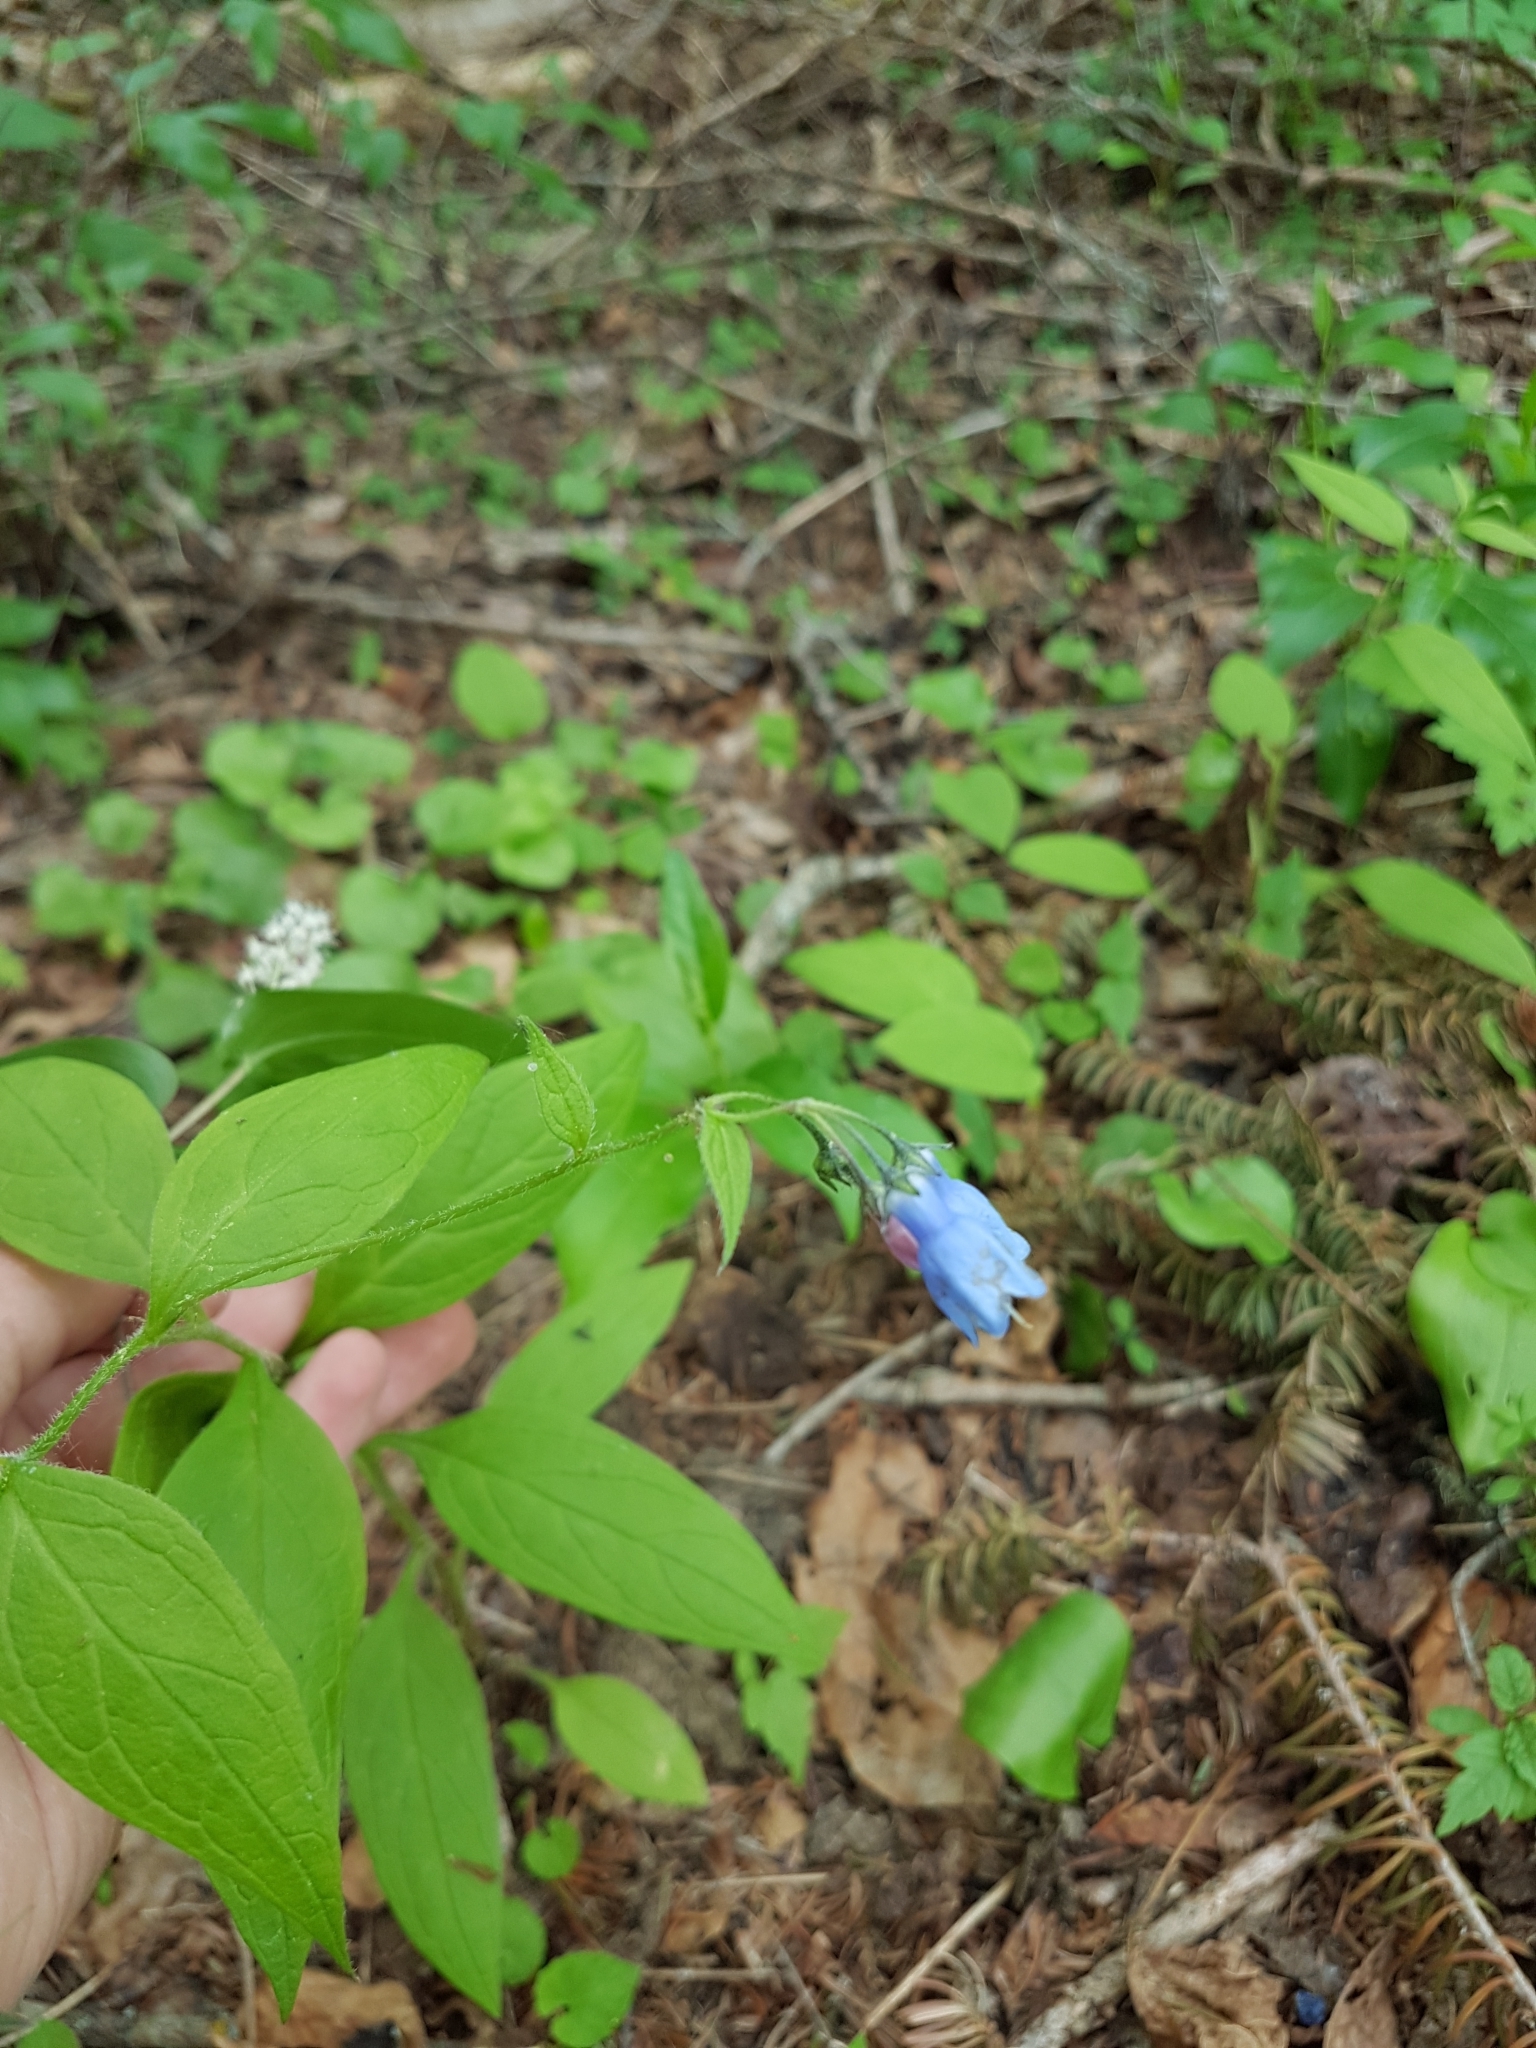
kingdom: Plantae
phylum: Tracheophyta
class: Magnoliopsida
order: Boraginales
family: Boraginaceae
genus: Mertensia
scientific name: Mertensia paniculata
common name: Panicled bluebells
